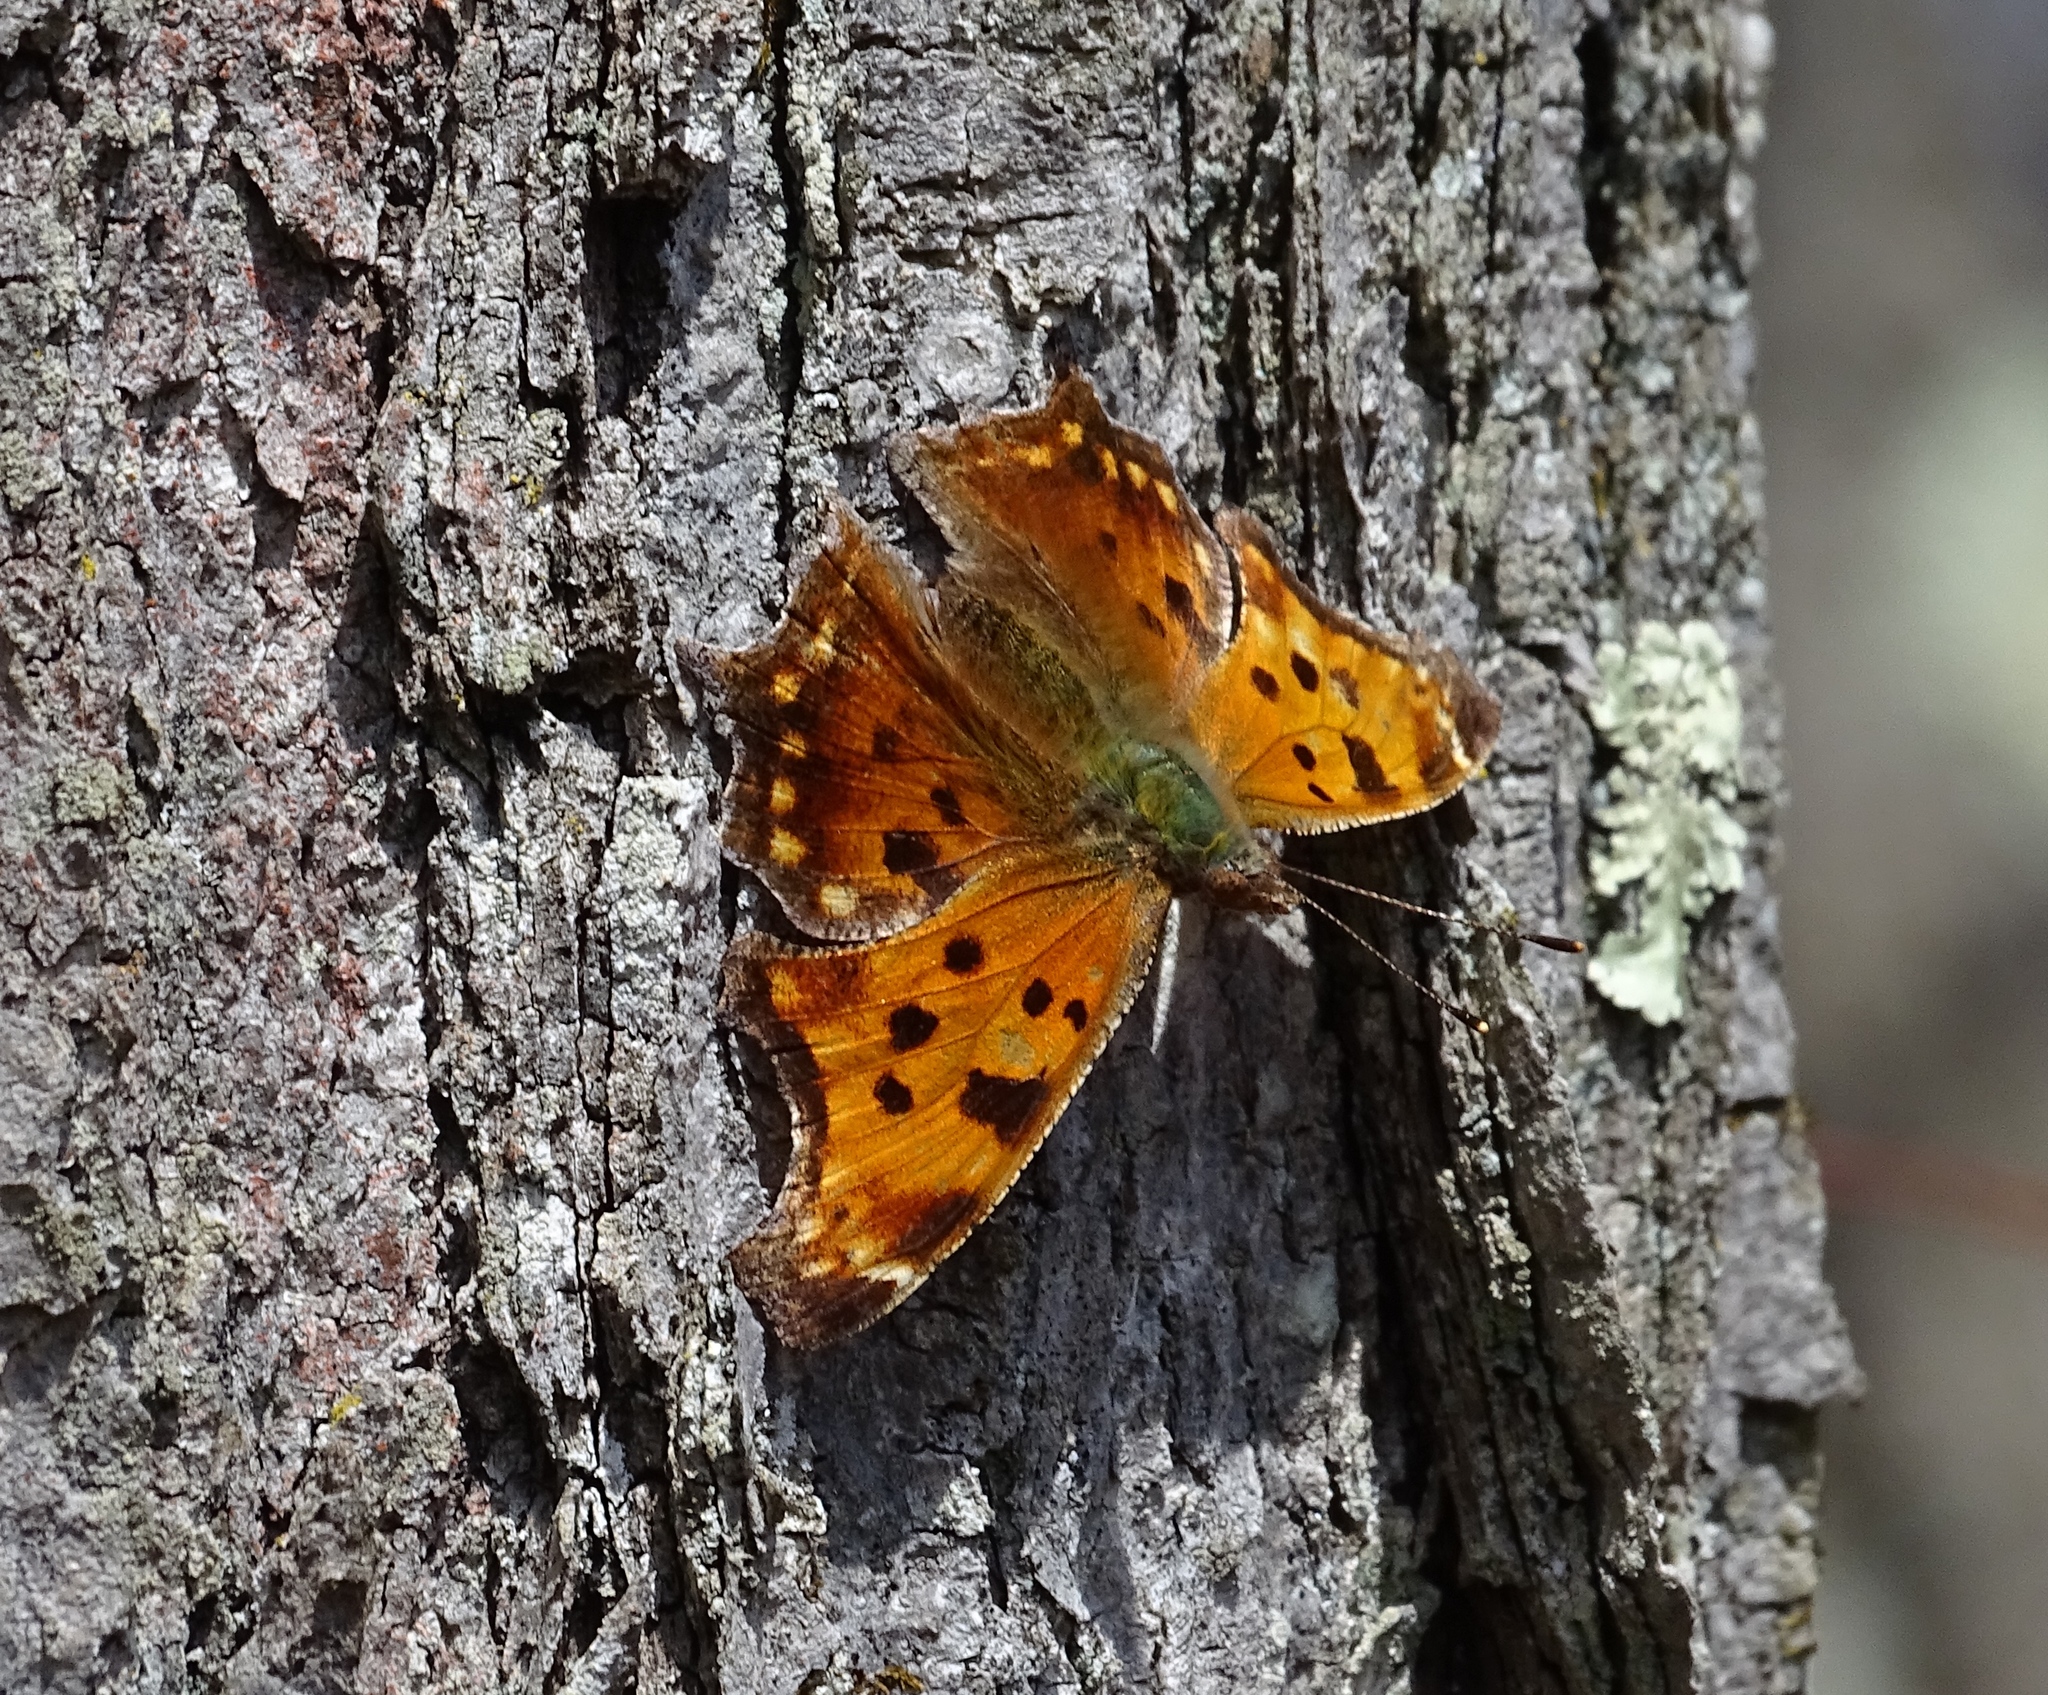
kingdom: Animalia
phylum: Arthropoda
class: Insecta
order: Lepidoptera
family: Nymphalidae
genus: Polygonia
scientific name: Polygonia comma
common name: Eastern comma
